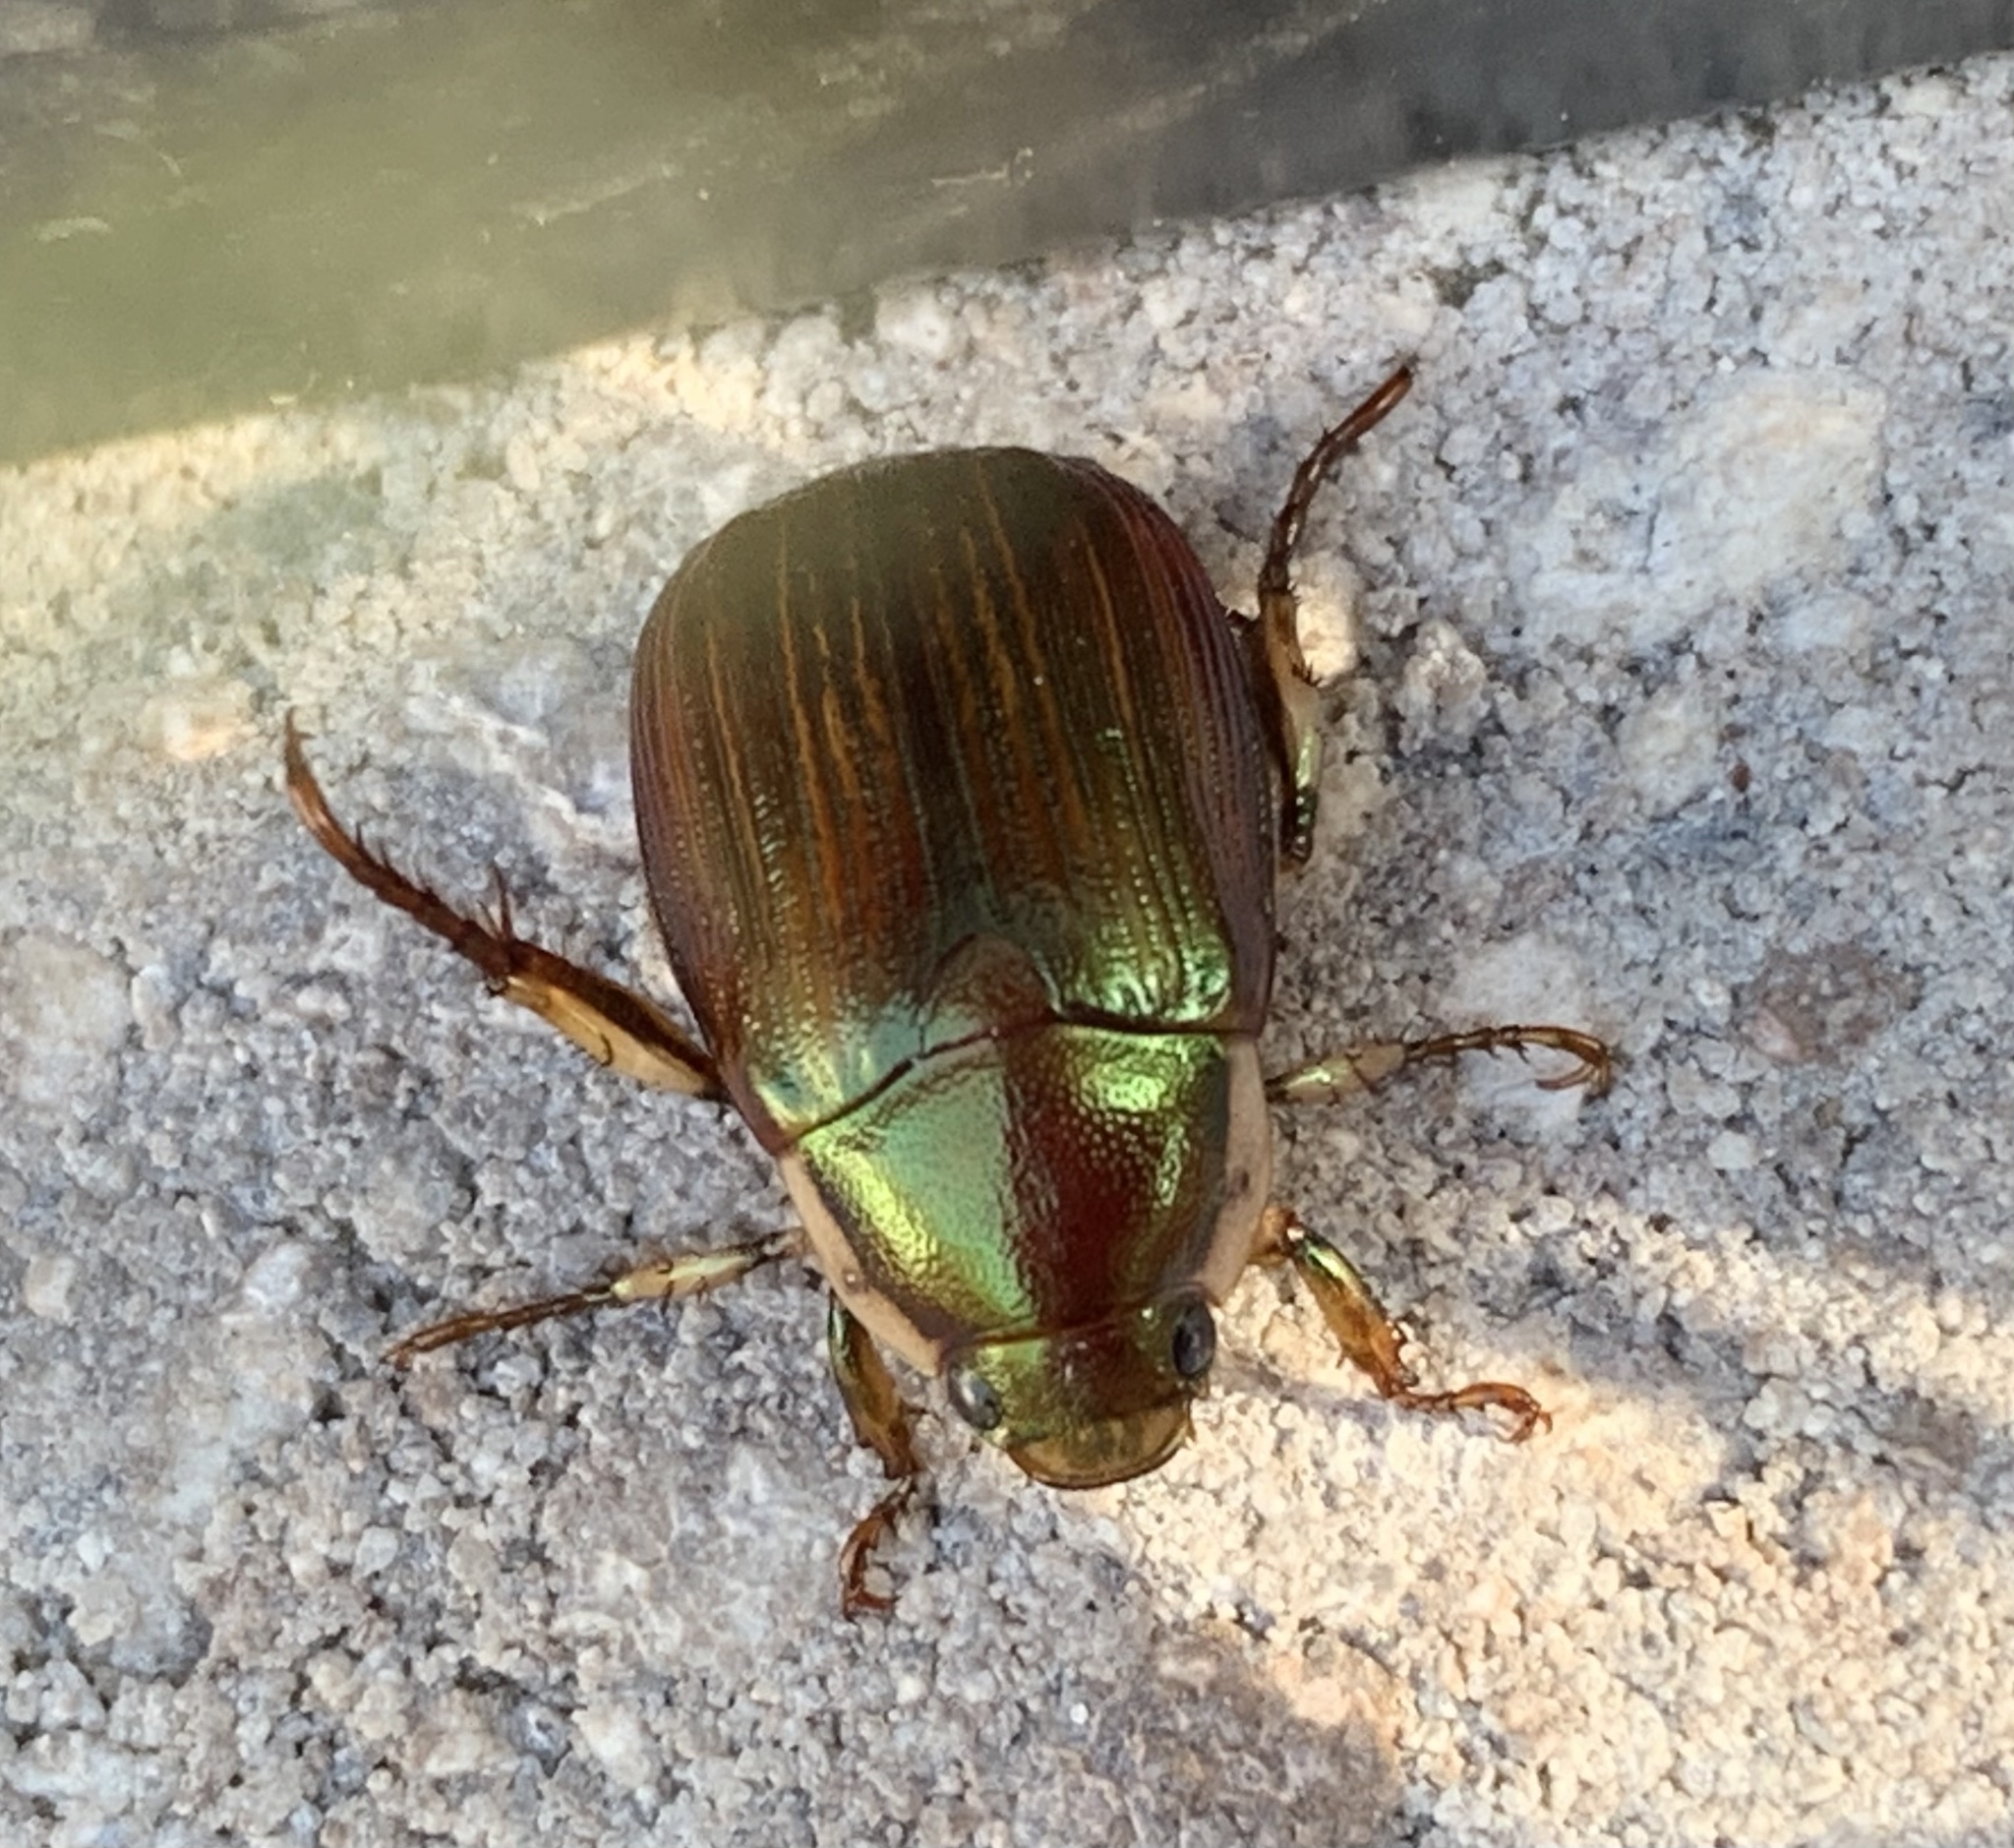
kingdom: Animalia
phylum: Arthropoda
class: Insecta
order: Coleoptera
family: Scarabaeidae
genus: Callistethus
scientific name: Callistethus marginatus
